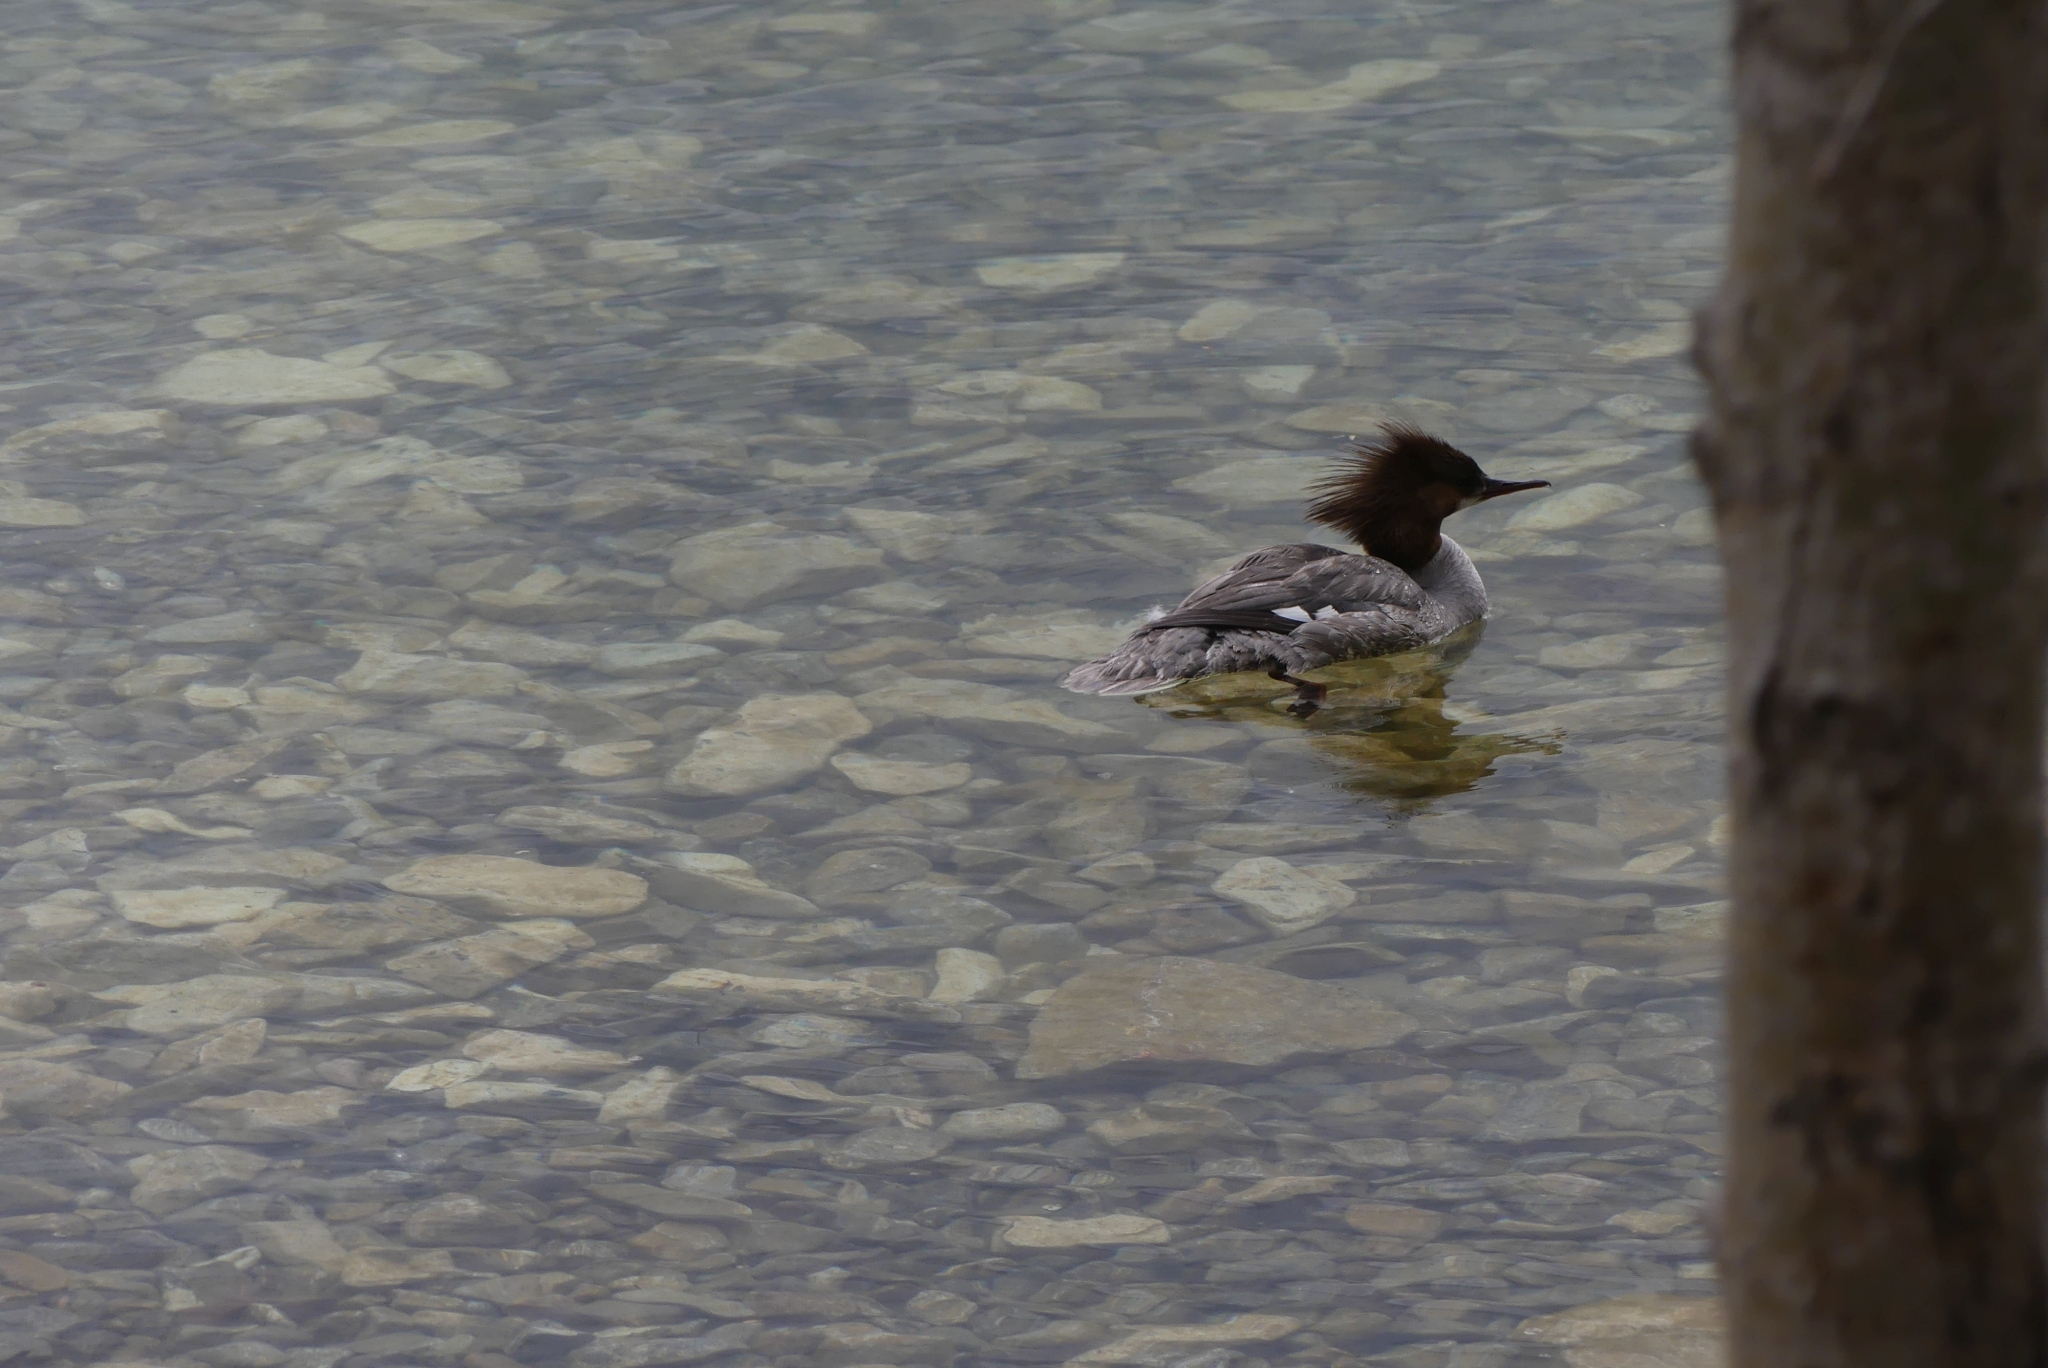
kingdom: Animalia
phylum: Chordata
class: Aves
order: Anseriformes
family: Anatidae
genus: Mergus
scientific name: Mergus merganser
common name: Common merganser
